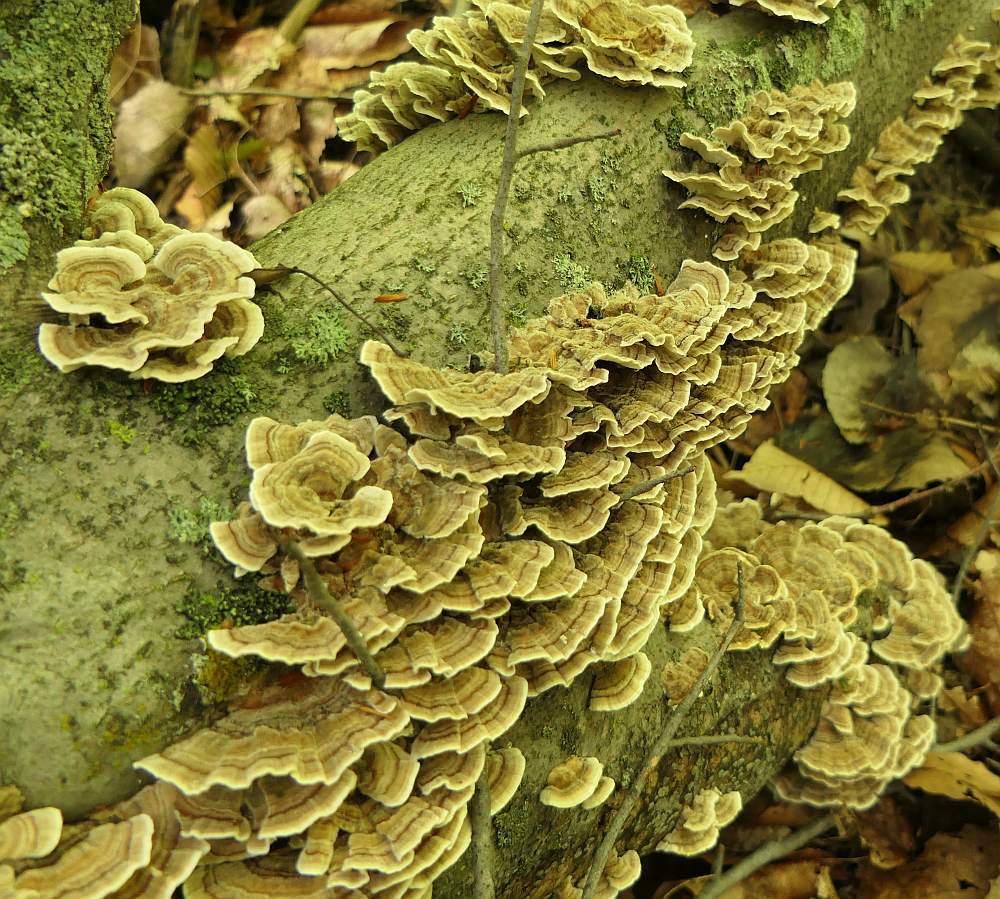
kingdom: Fungi
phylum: Basidiomycota
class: Agaricomycetes
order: Polyporales
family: Polyporaceae
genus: Trametes
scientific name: Trametes versicolor
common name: Turkeytail
